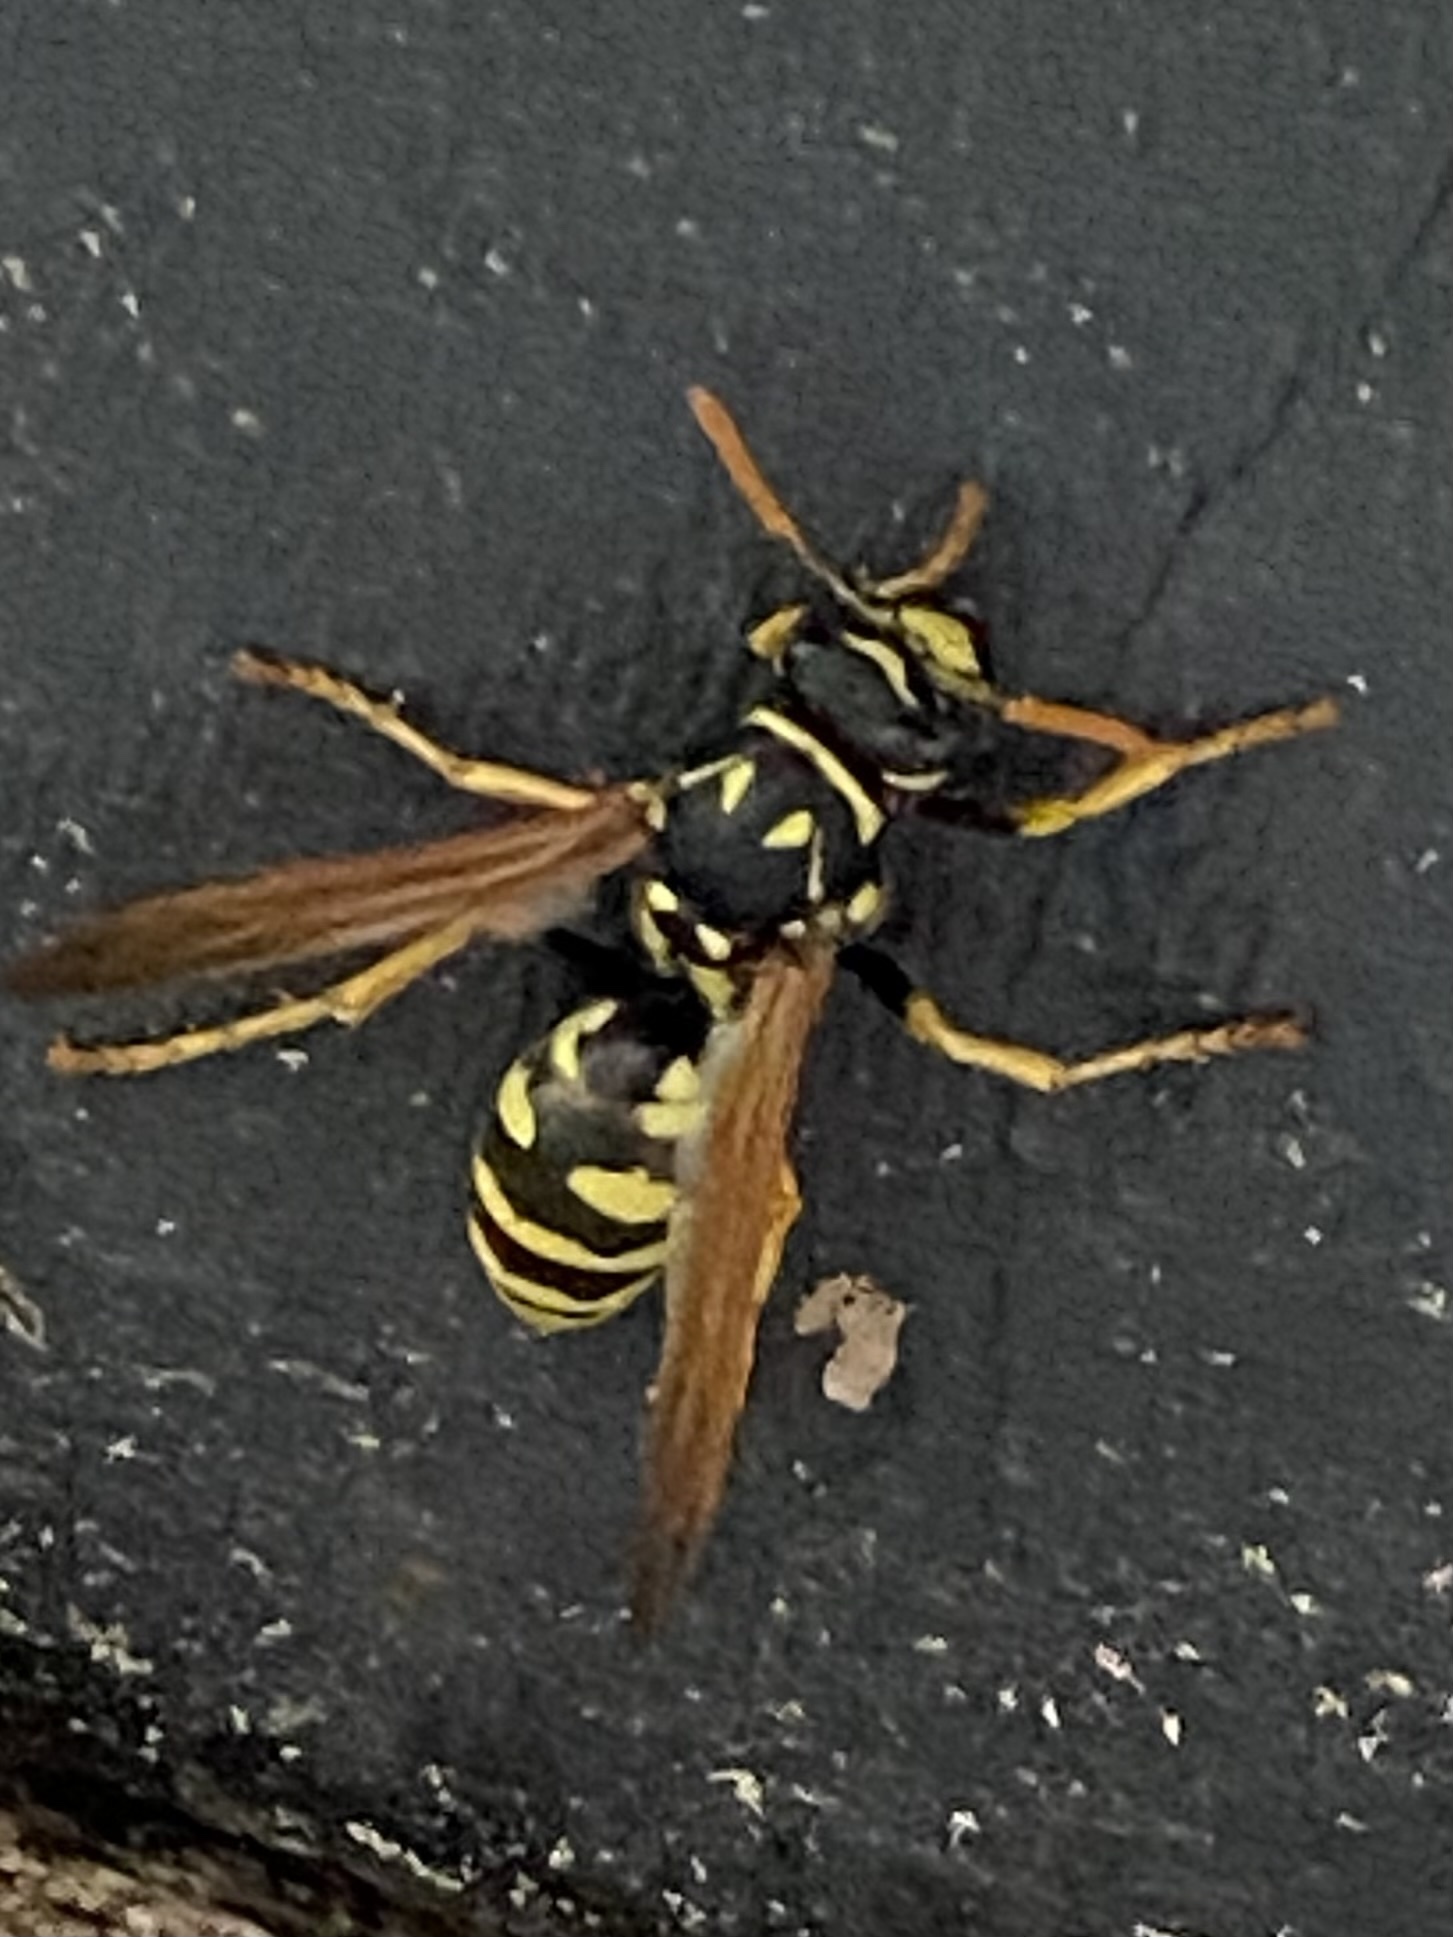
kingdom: Animalia
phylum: Arthropoda
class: Insecta
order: Hymenoptera
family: Eumenidae
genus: Polistes
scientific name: Polistes dominula
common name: Paper wasp
